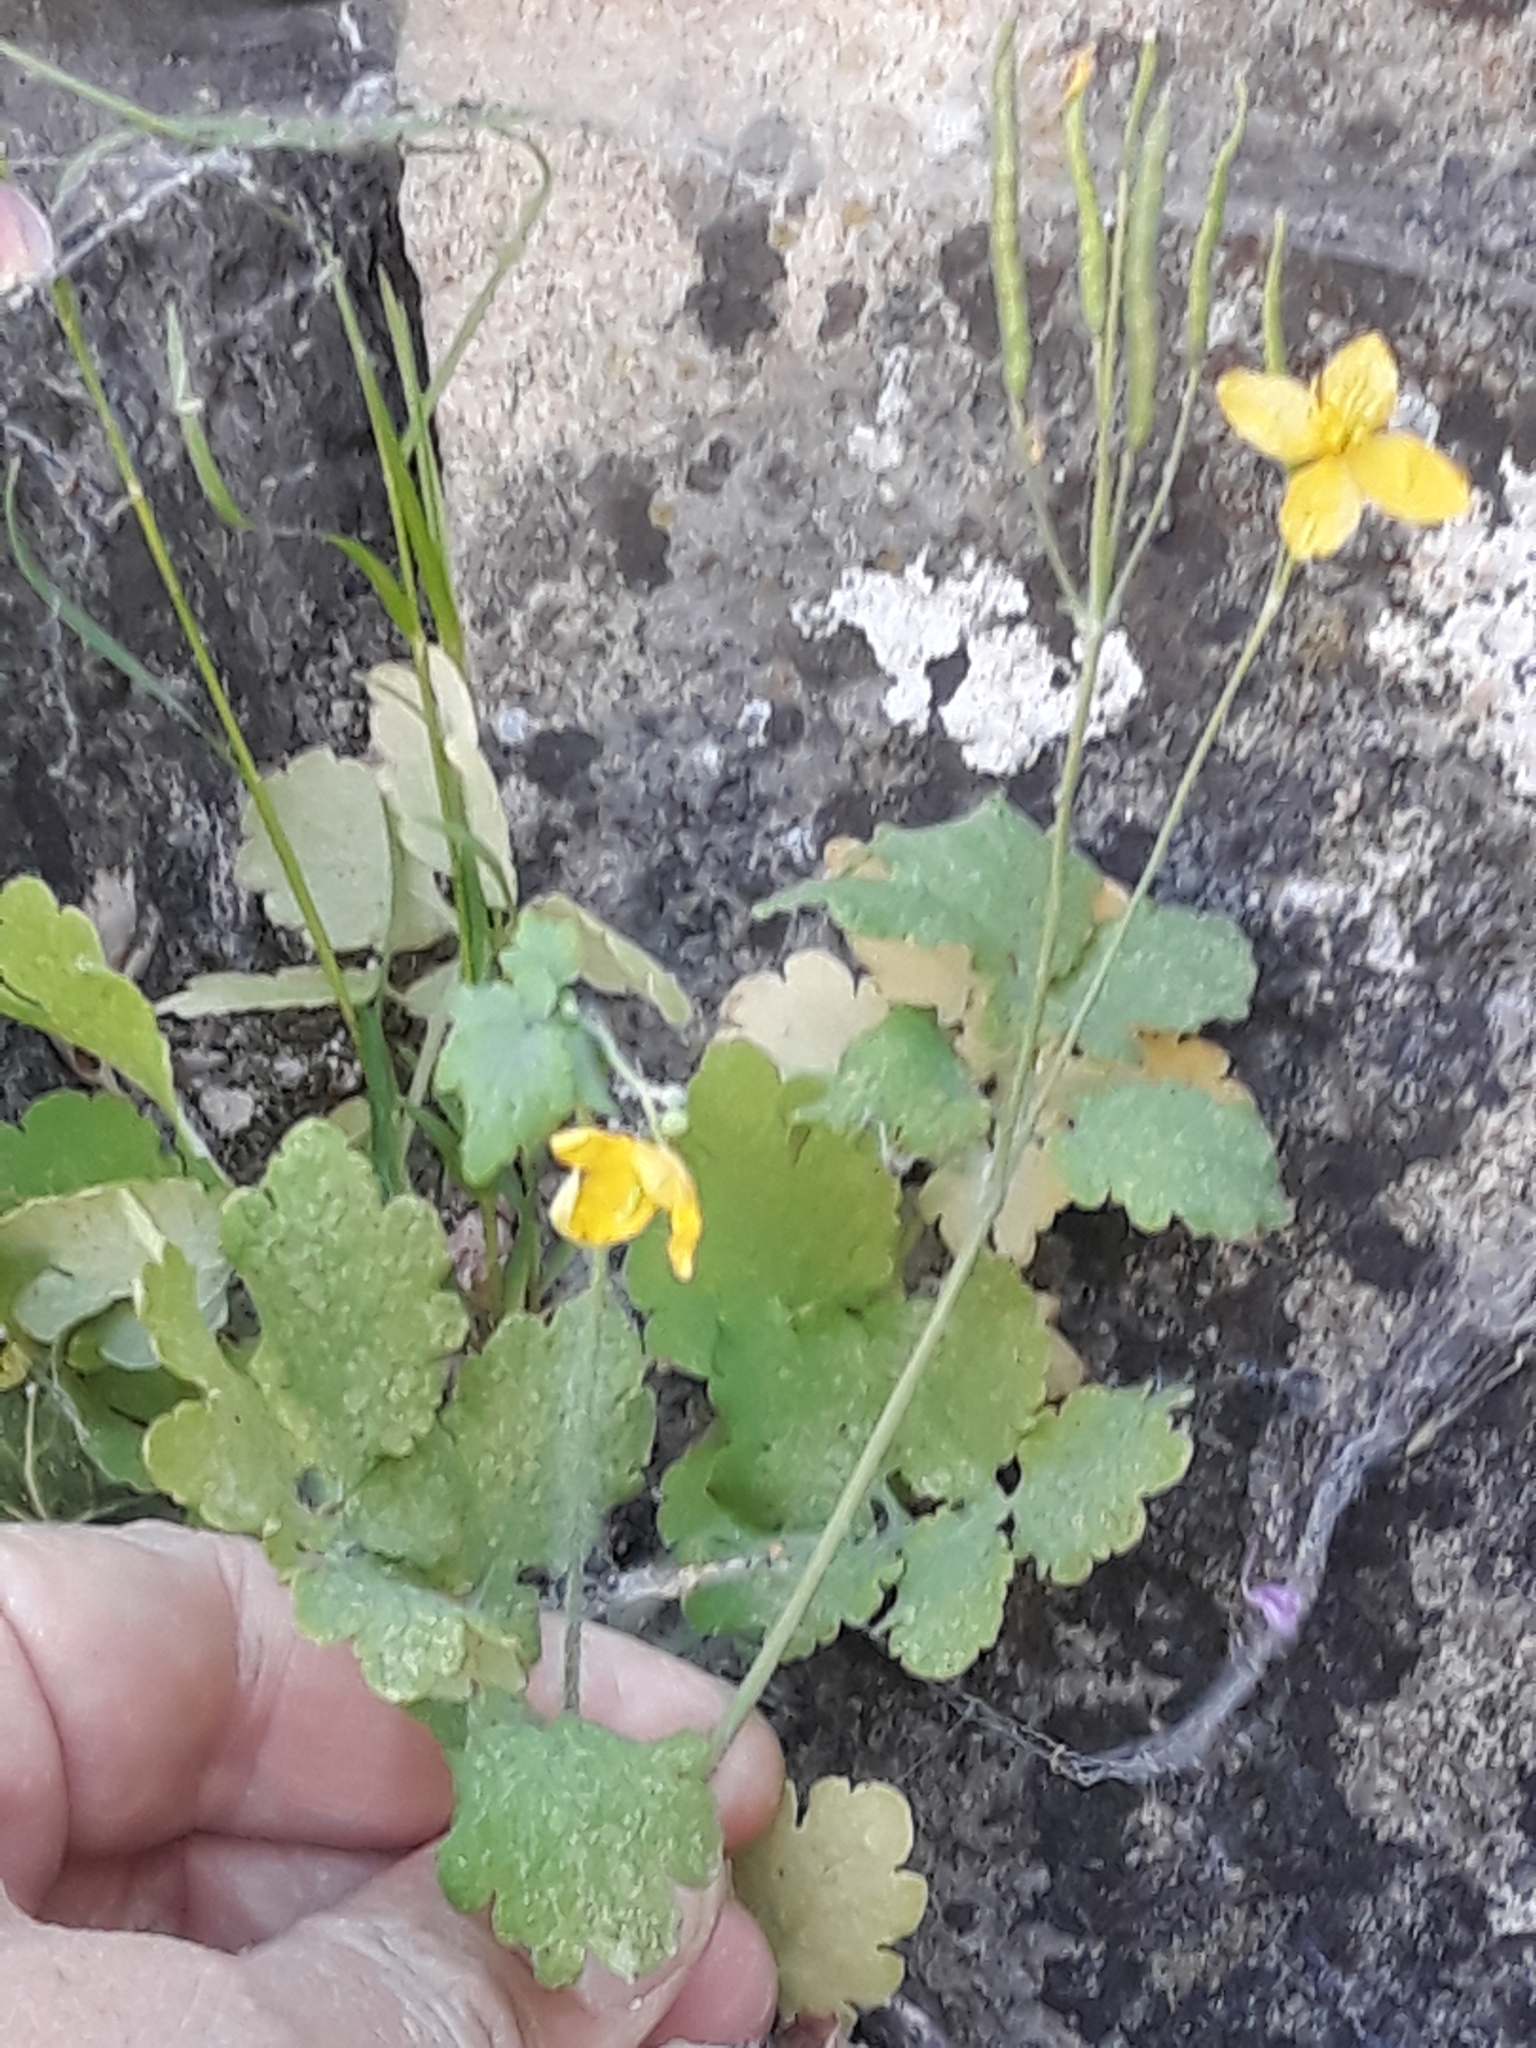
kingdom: Plantae
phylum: Tracheophyta
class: Magnoliopsida
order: Ranunculales
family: Papaveraceae
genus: Chelidonium
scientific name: Chelidonium majus
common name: Greater celandine
